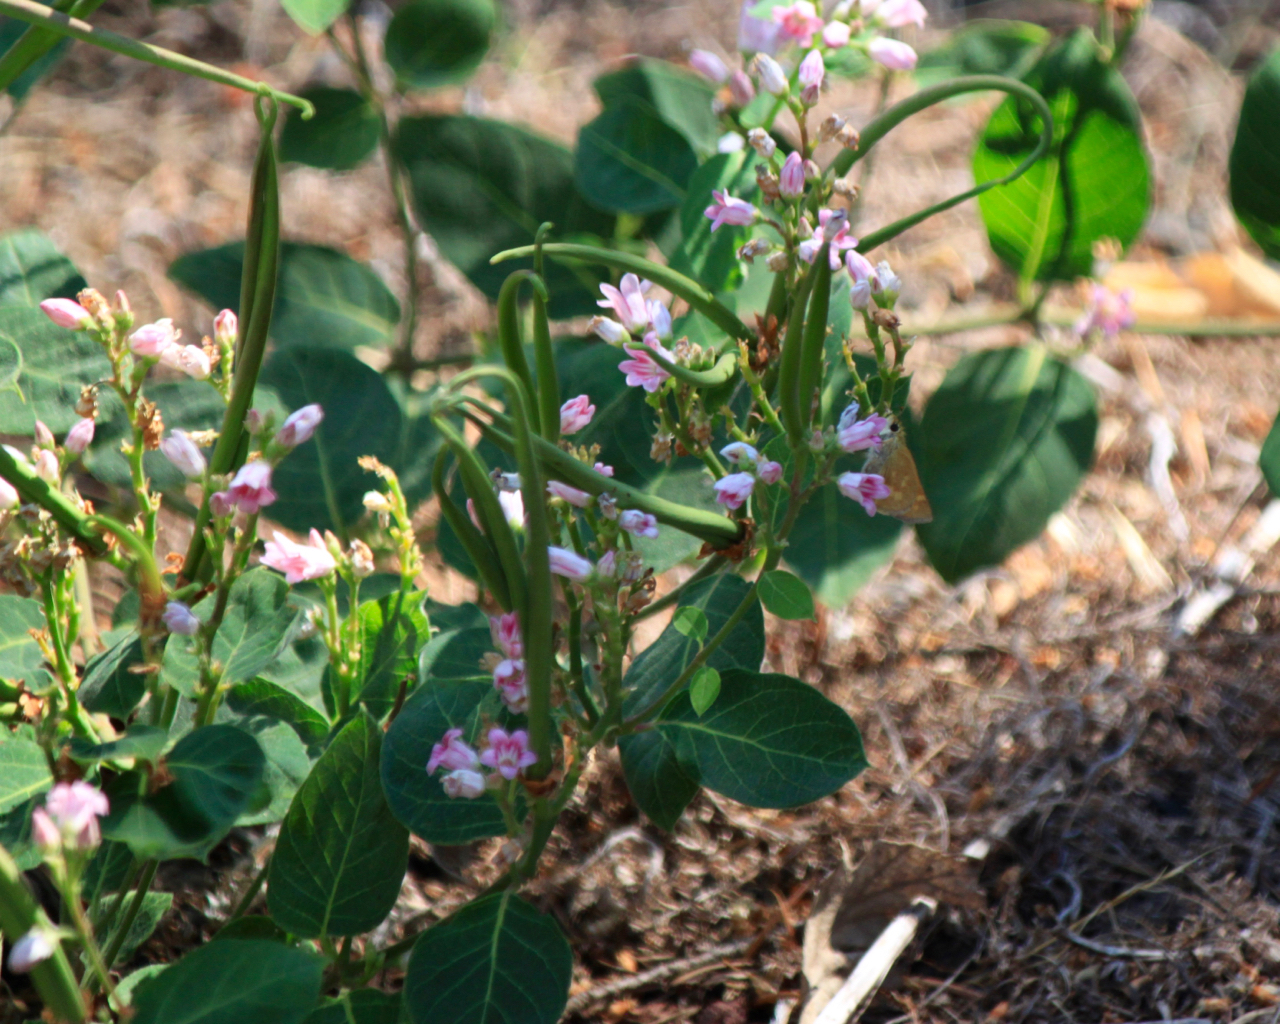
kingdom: Plantae
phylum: Tracheophyta
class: Magnoliopsida
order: Gentianales
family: Apocynaceae
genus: Apocynum
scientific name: Apocynum androsaemifolium
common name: Spreading dogbane
